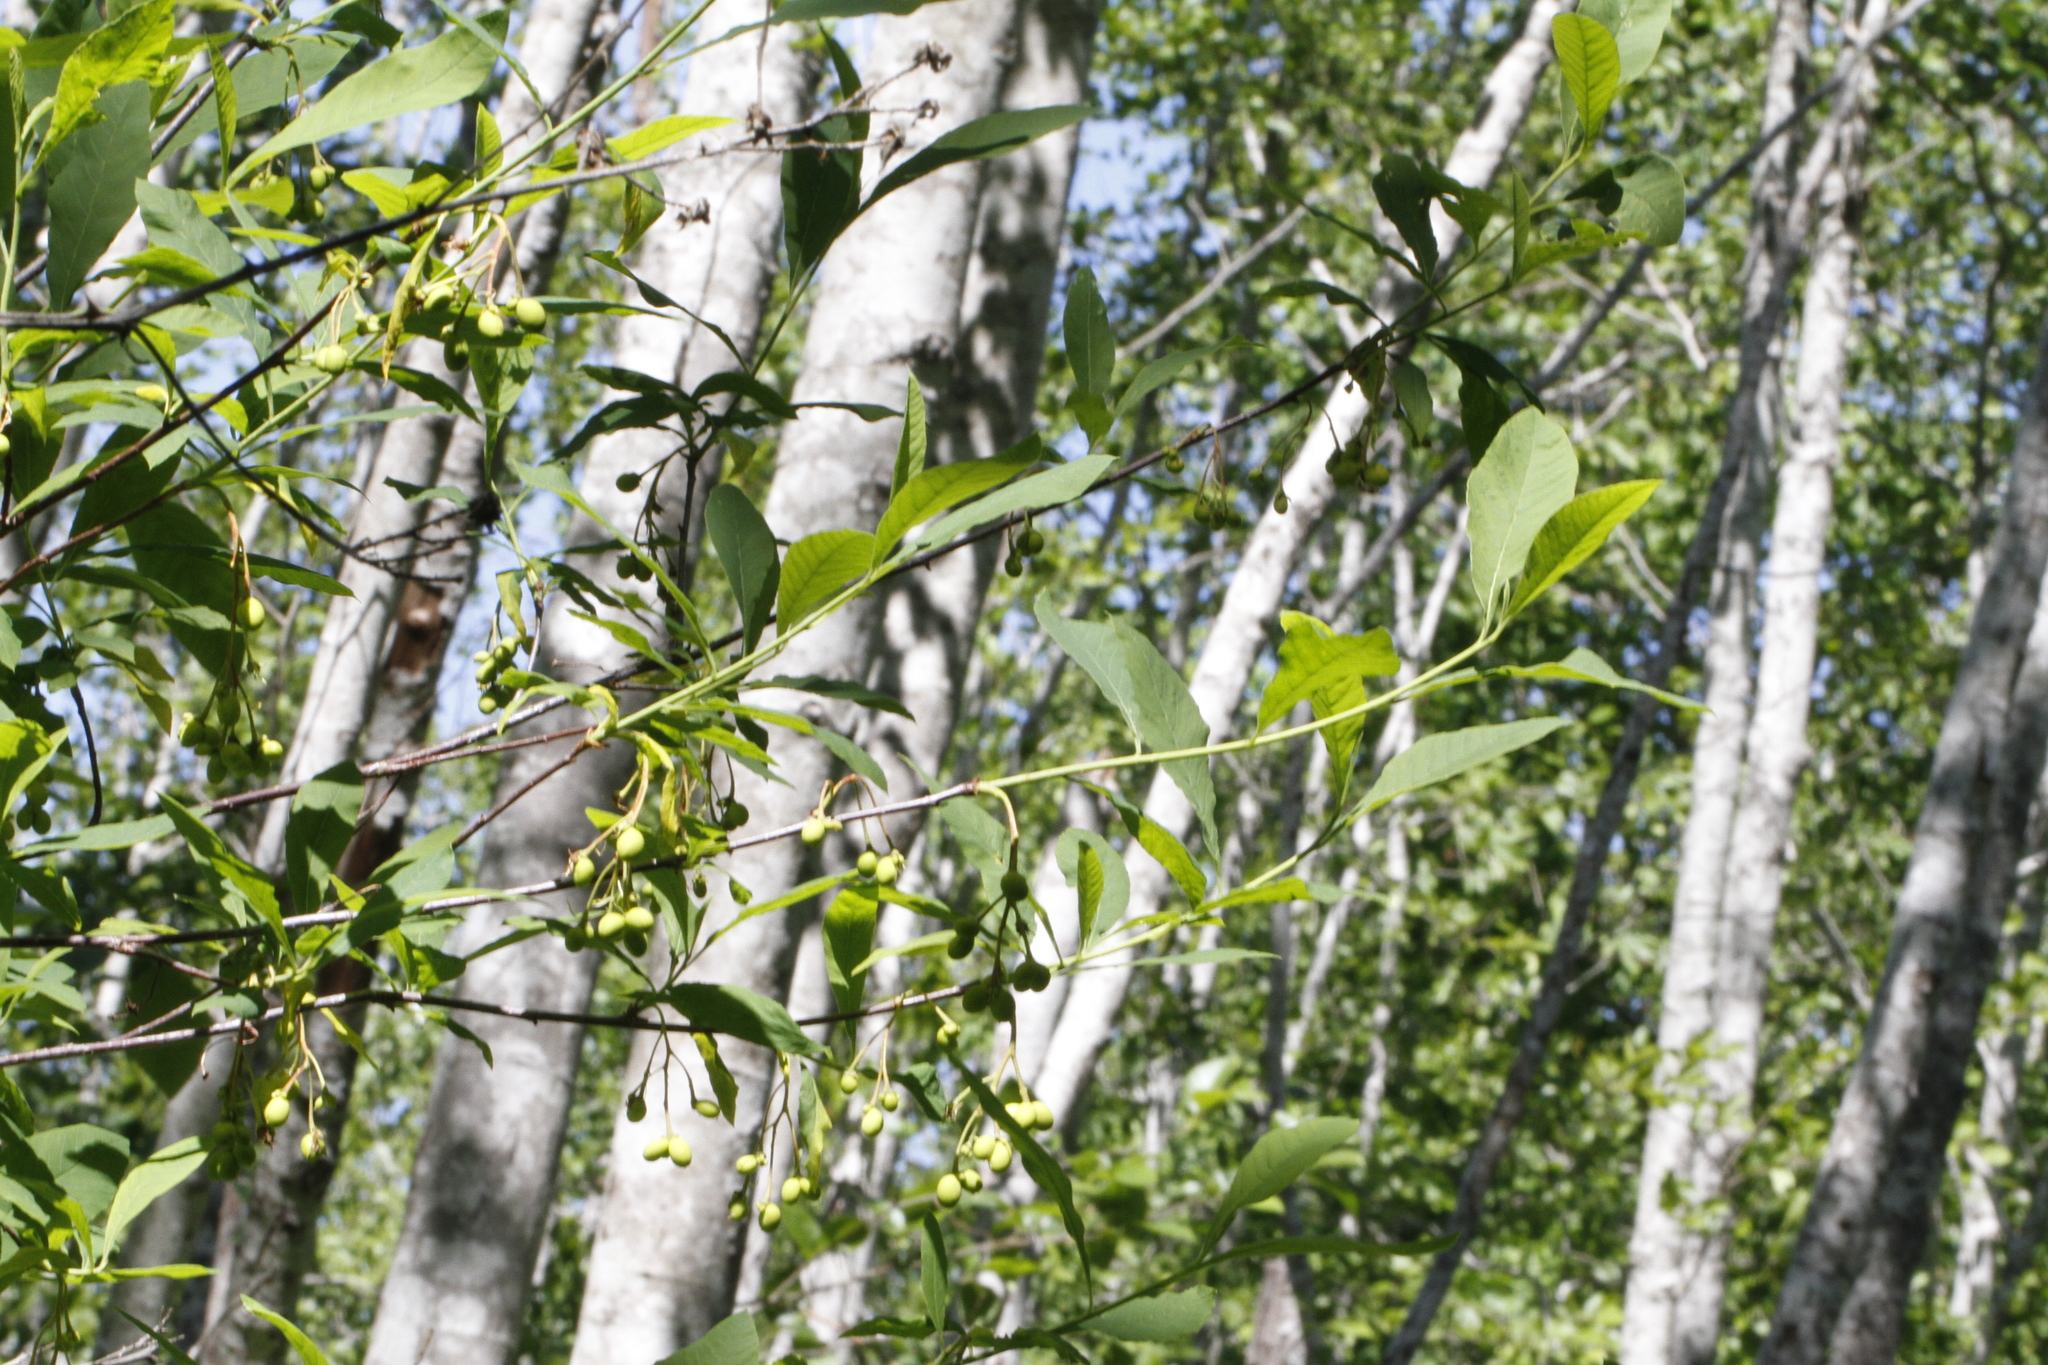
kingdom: Plantae
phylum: Tracheophyta
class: Magnoliopsida
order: Rosales
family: Rosaceae
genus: Oemleria
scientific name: Oemleria cerasiformis
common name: Osoberry
